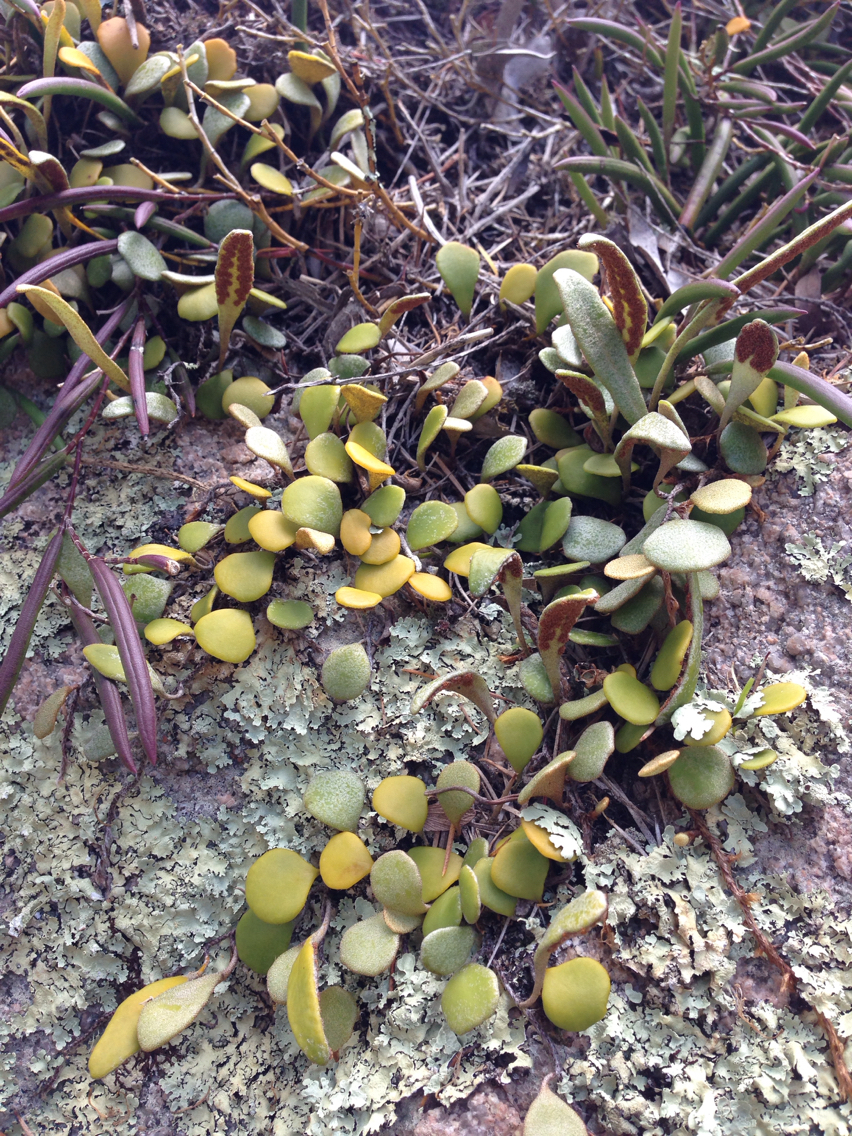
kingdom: Plantae
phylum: Tracheophyta
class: Polypodiopsida
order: Polypodiales
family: Polypodiaceae
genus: Pyrrosia
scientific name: Pyrrosia rupestris
